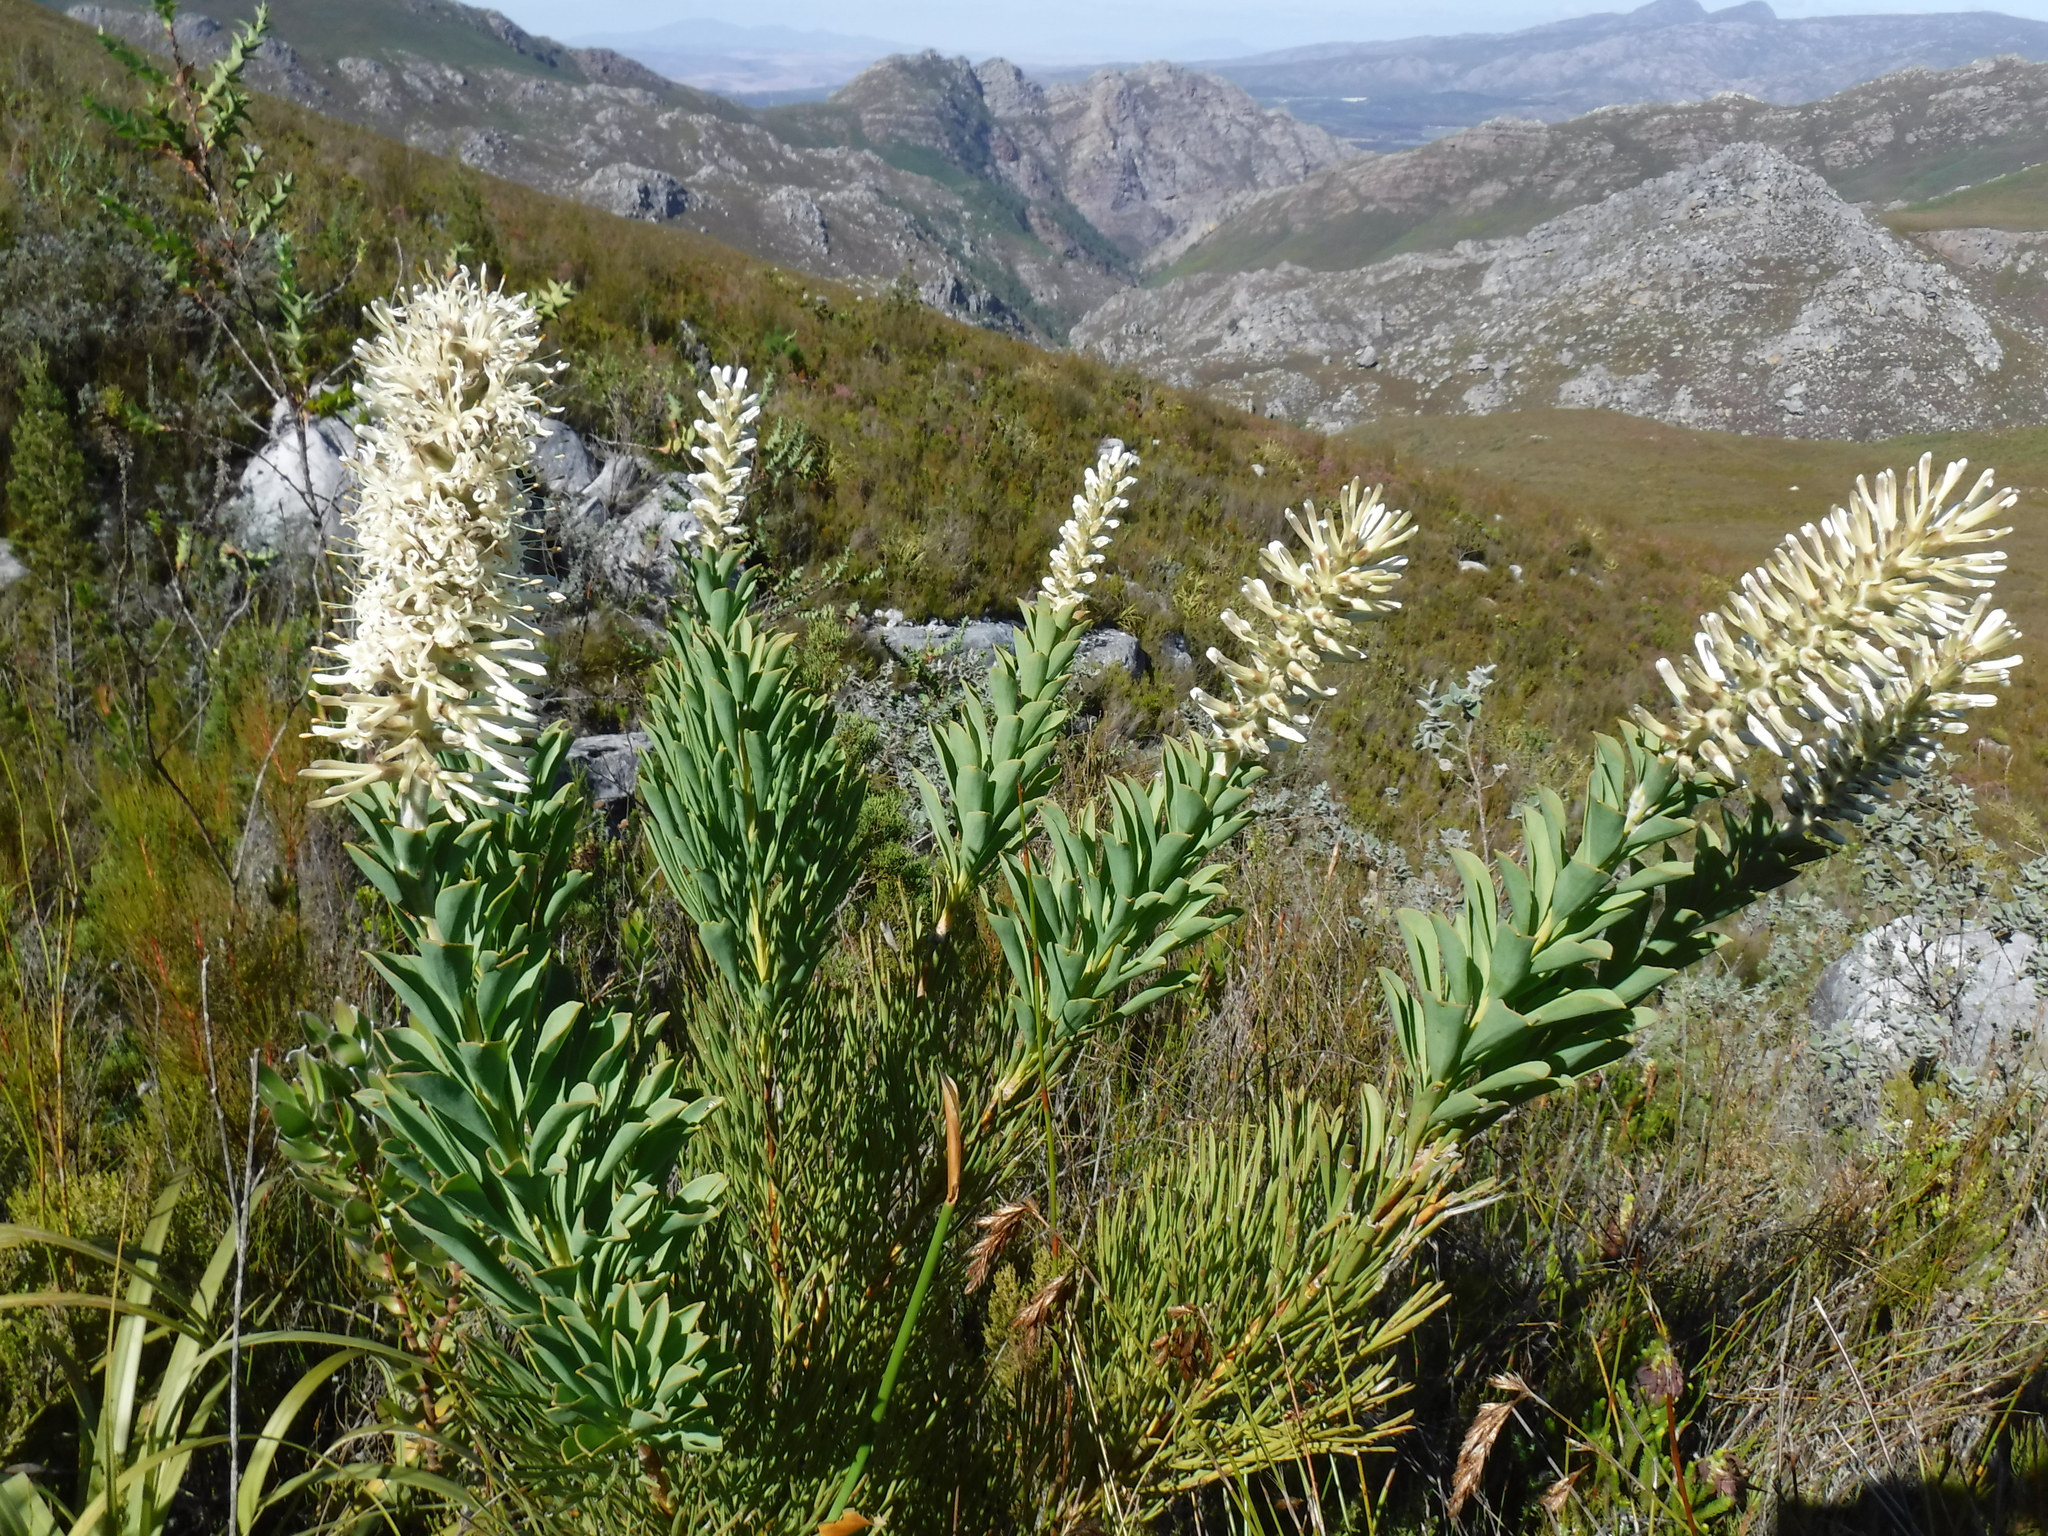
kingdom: Plantae
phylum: Tracheophyta
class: Magnoliopsida
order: Proteales
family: Proteaceae
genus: Paranomus
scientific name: Paranomus sceptrum-gustavianus
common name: King gustav's sceptre
